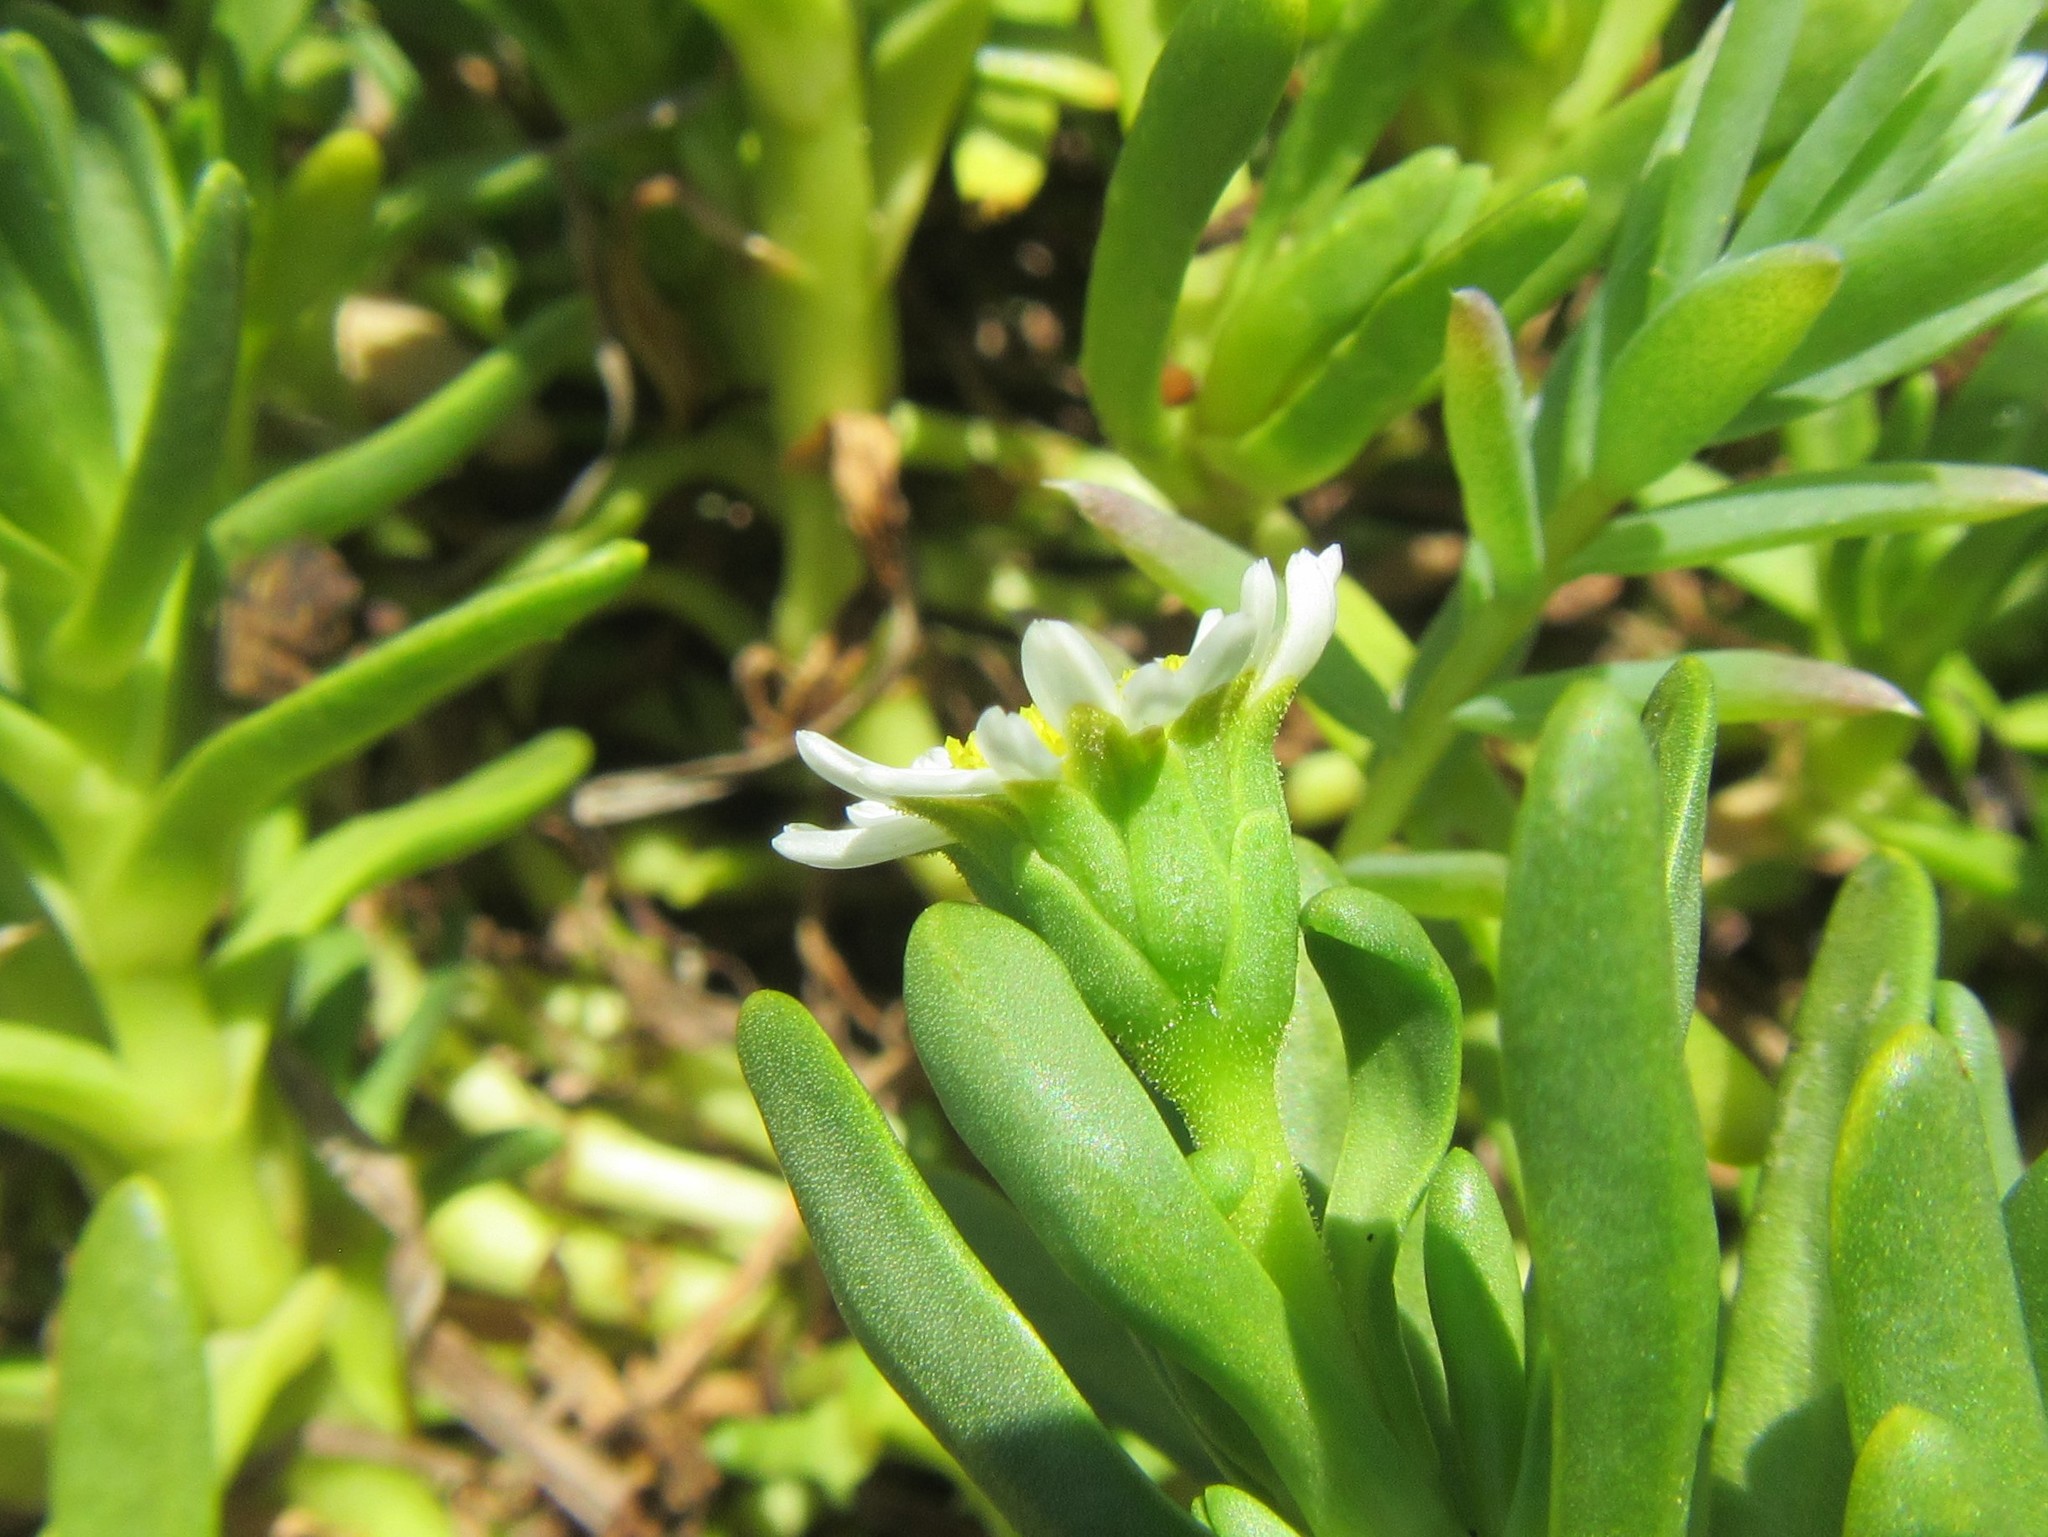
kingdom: Plantae
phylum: Tracheophyta
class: Magnoliopsida
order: Asterales
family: Asteraceae
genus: Poecilolepis
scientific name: Poecilolepis ficoidea
